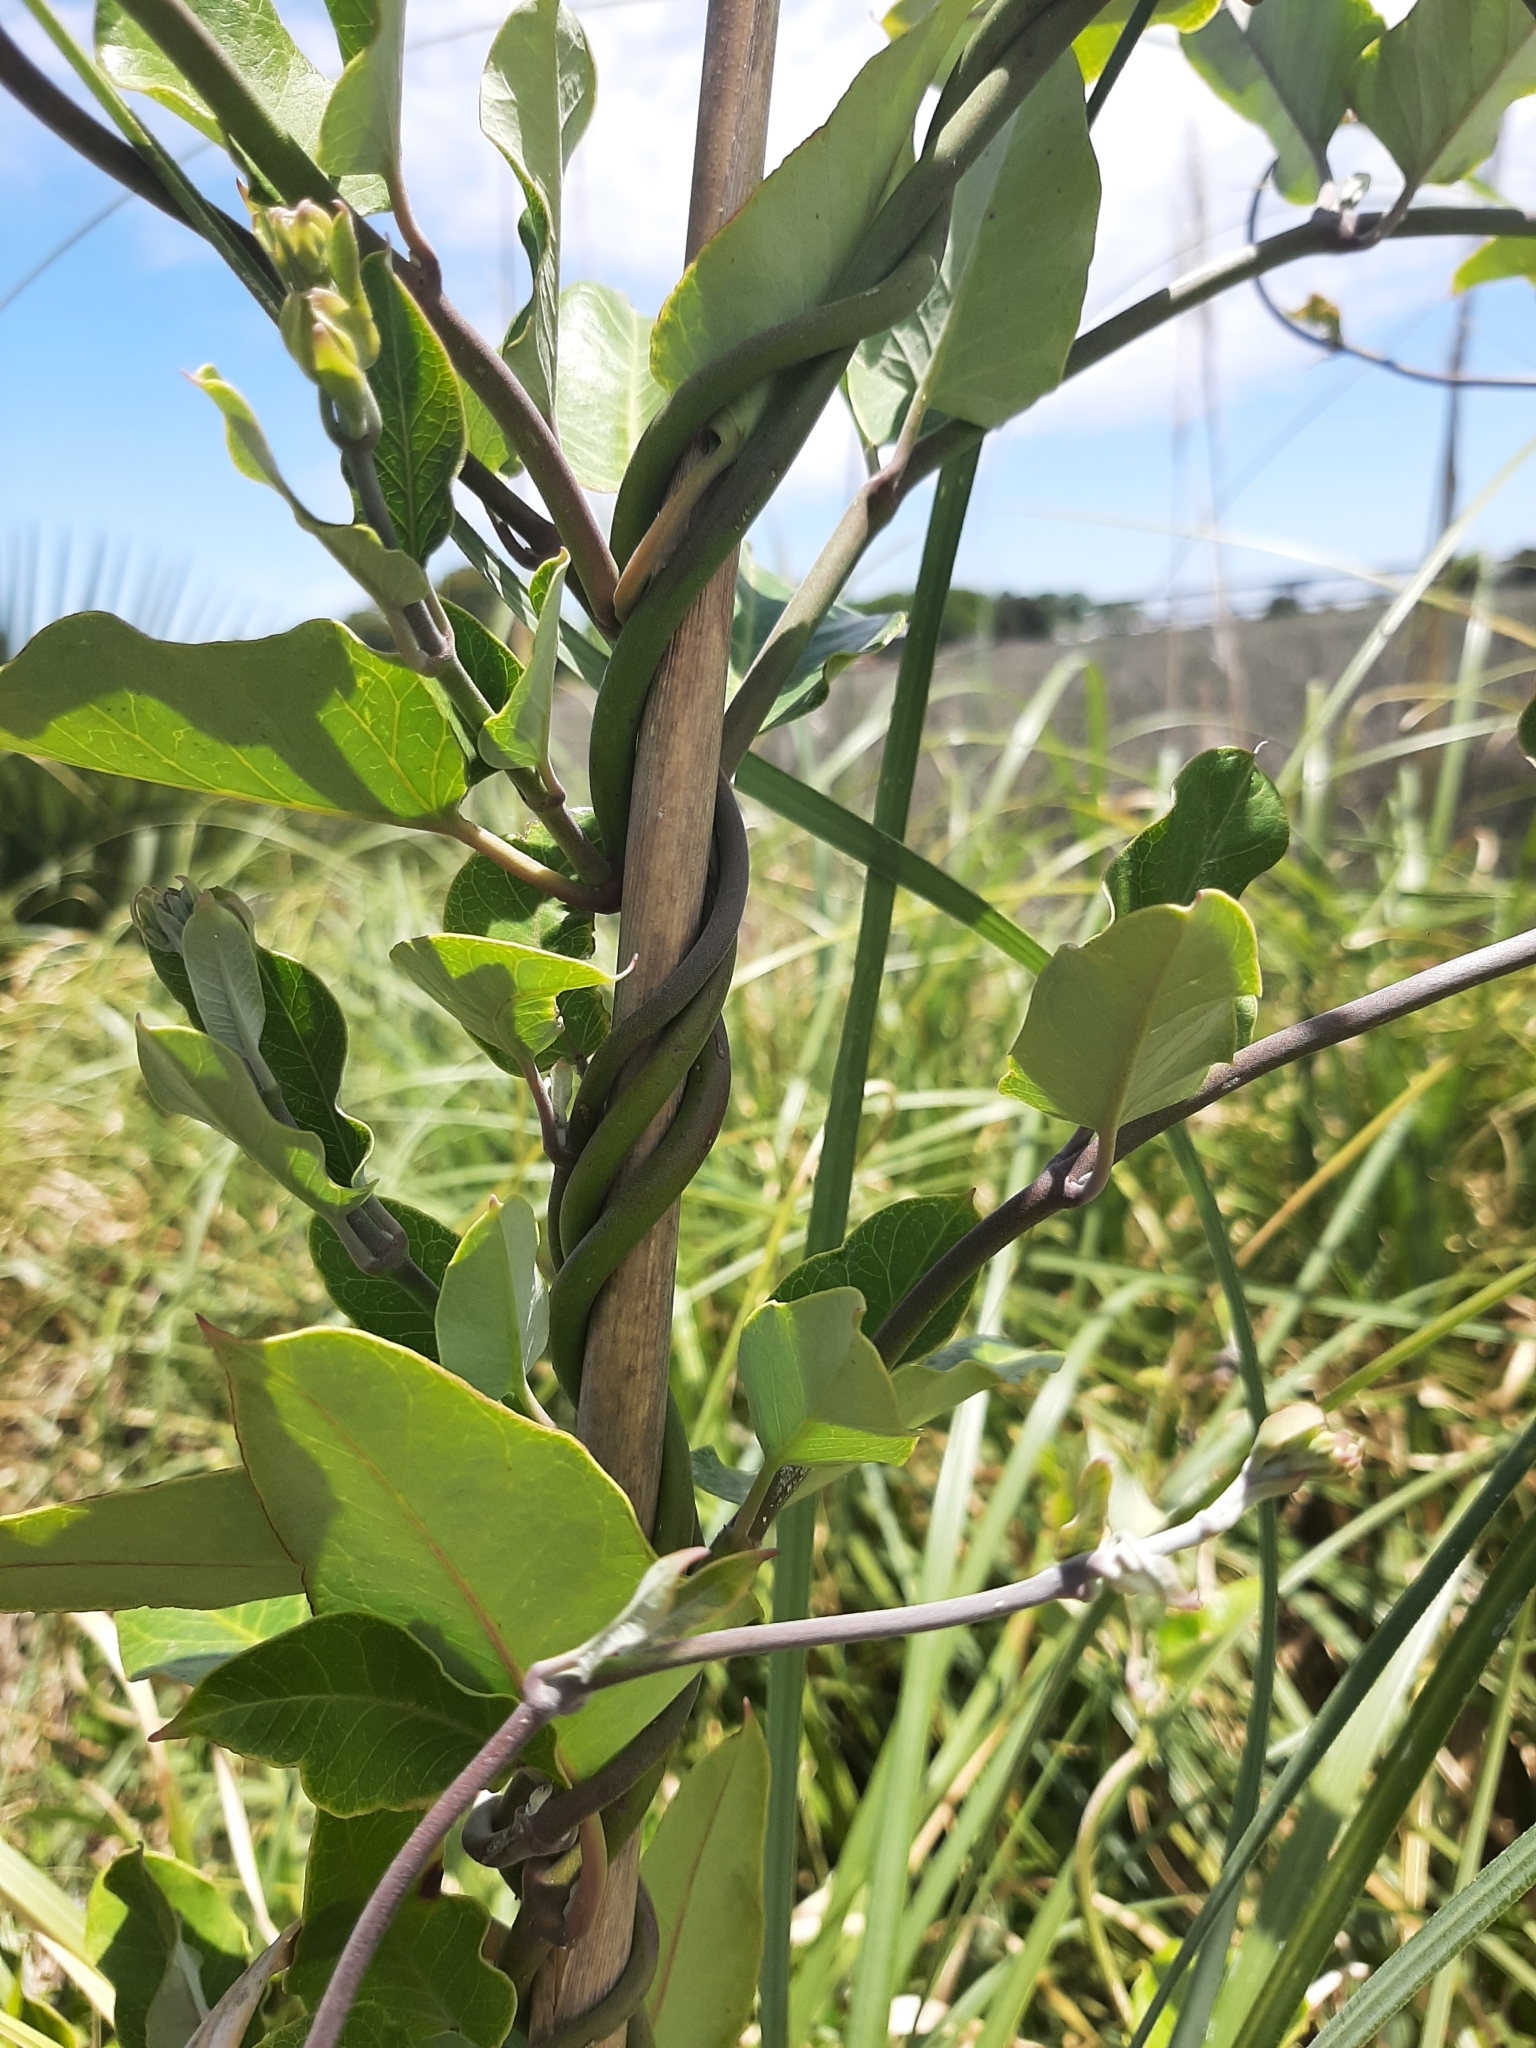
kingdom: Plantae
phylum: Tracheophyta
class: Magnoliopsida
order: Gentianales
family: Apocynaceae
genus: Araujia
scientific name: Araujia sericifera
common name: White bladderflower
